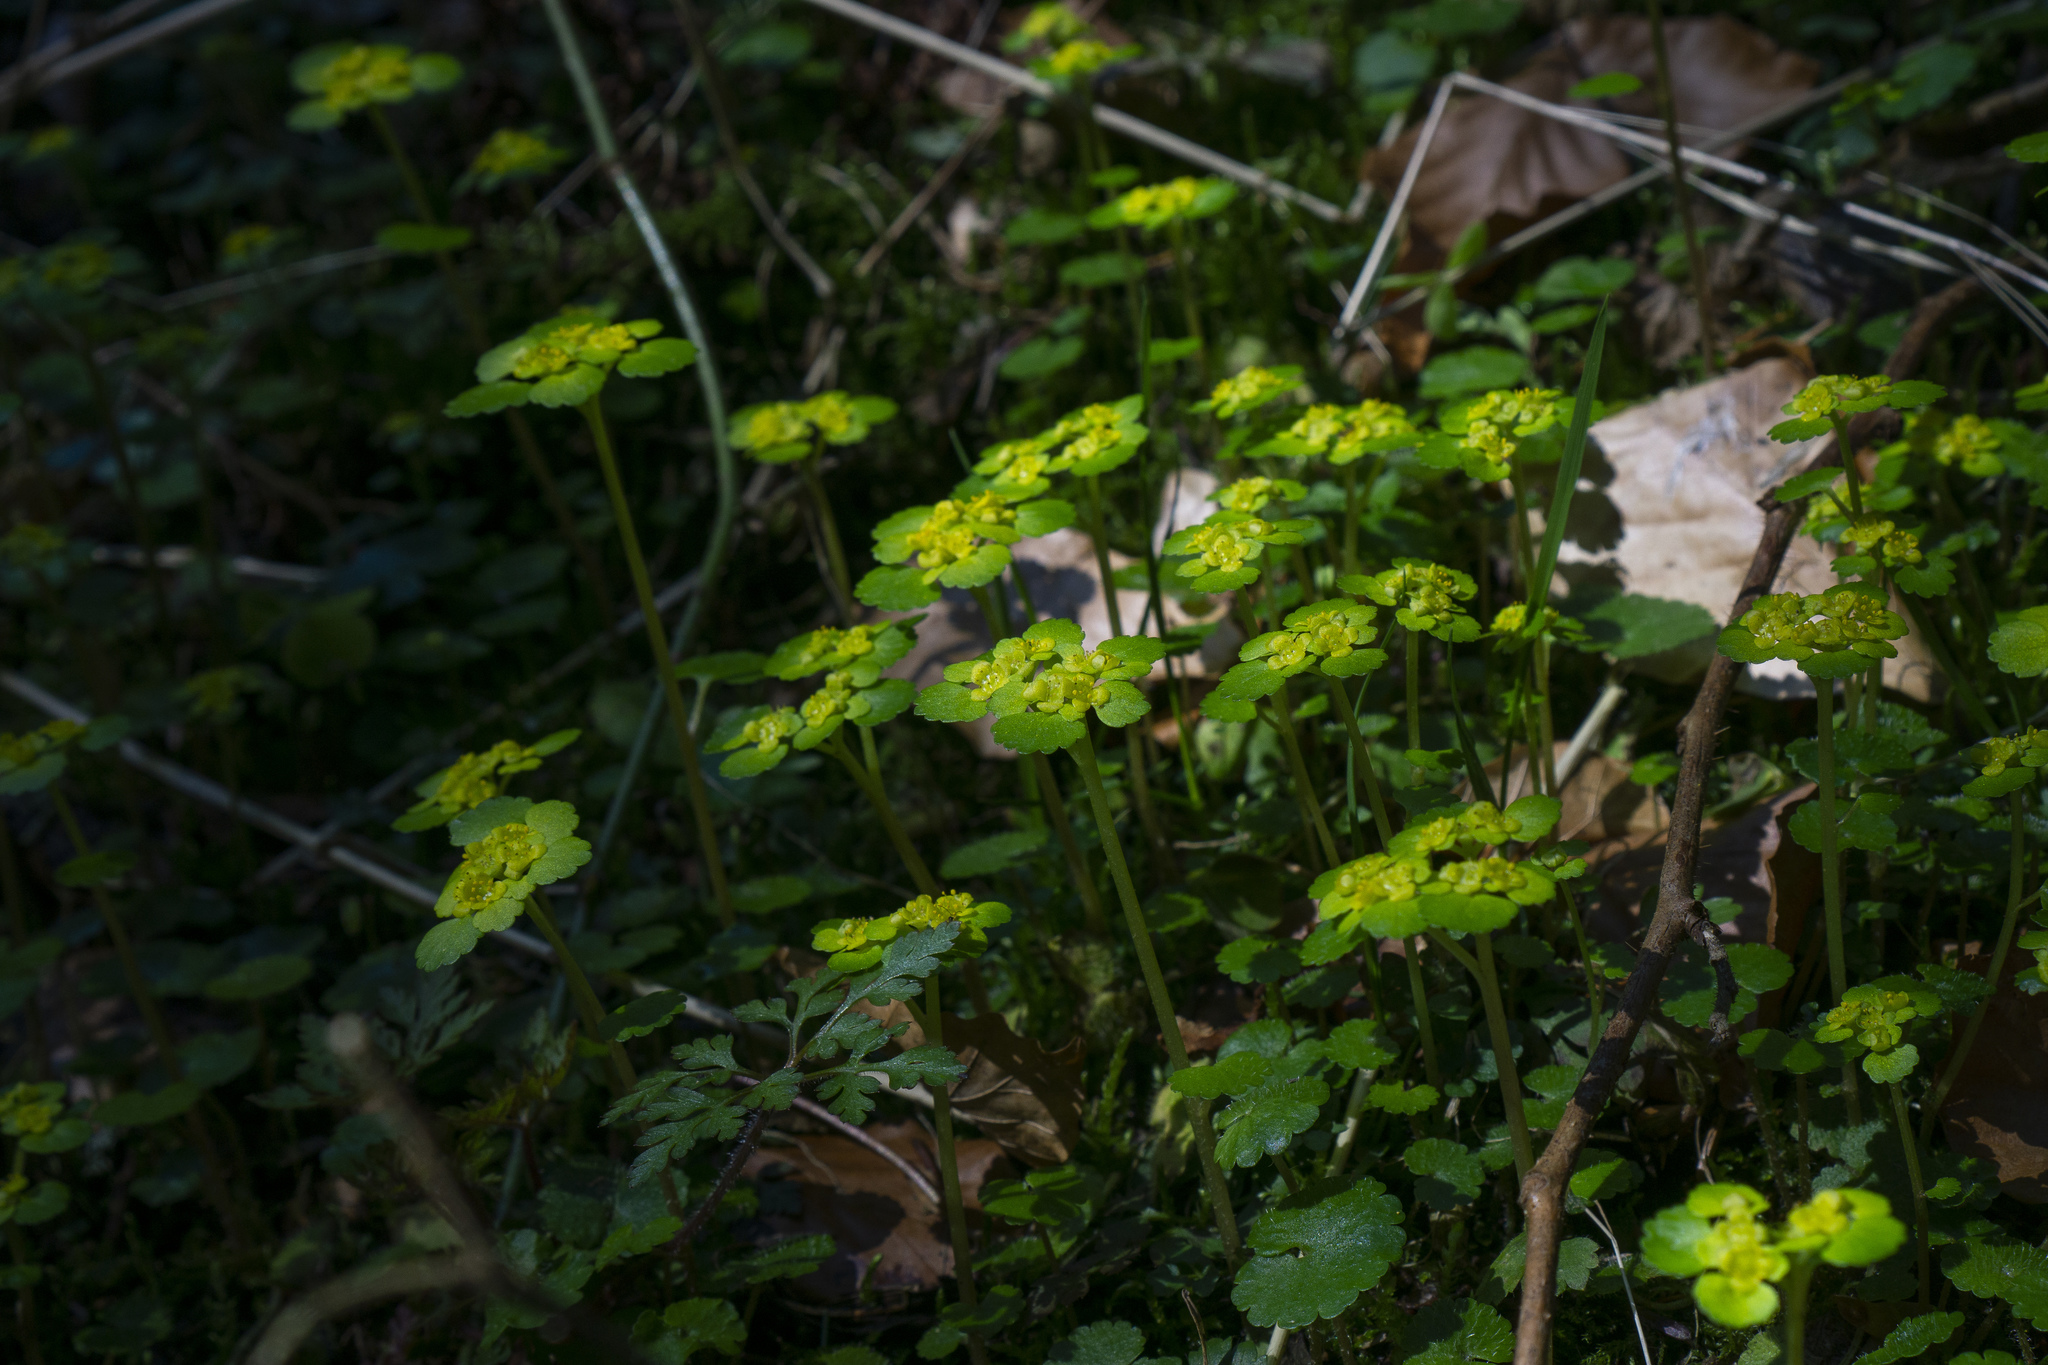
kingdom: Plantae
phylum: Tracheophyta
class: Magnoliopsida
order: Saxifragales
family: Saxifragaceae
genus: Chrysosplenium
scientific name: Chrysosplenium alternifolium
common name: Alternate-leaved golden-saxifrage
